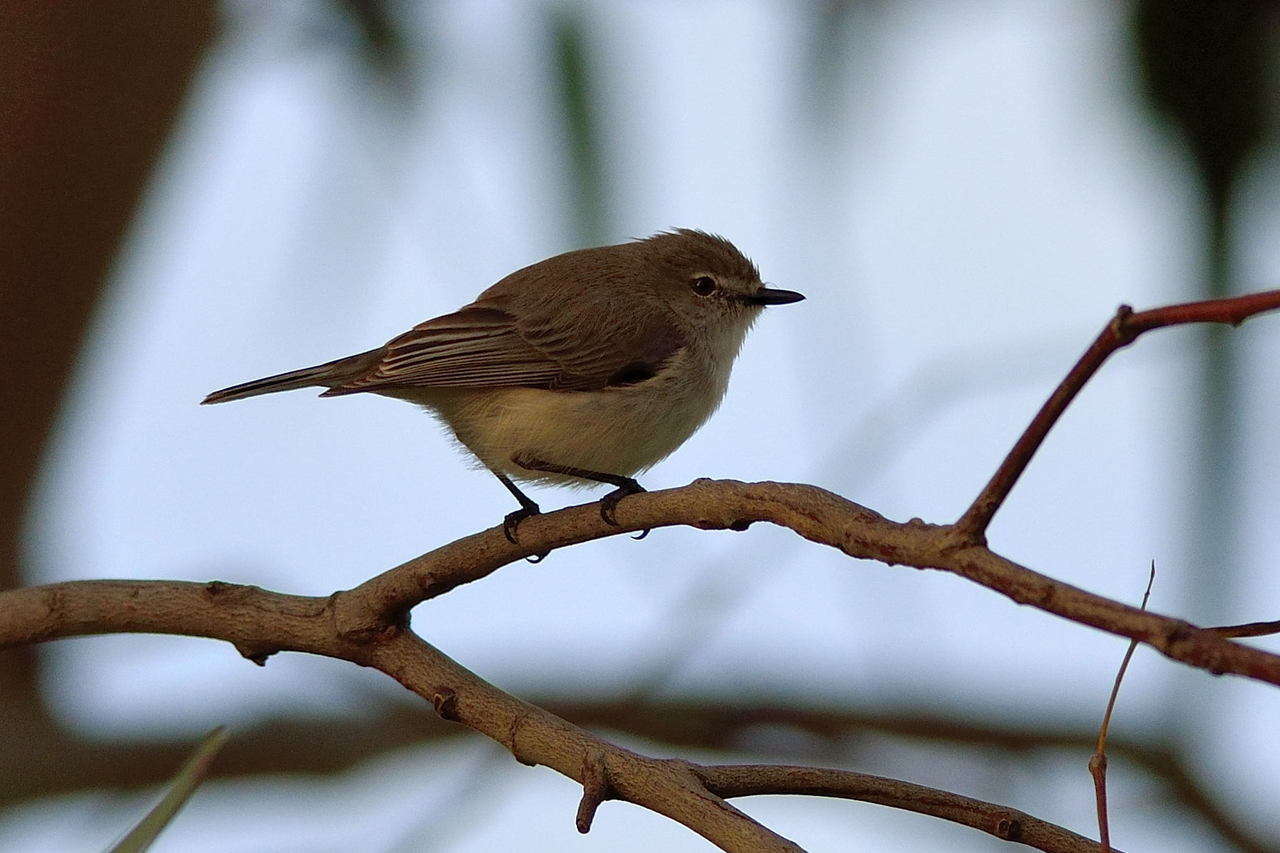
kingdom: Animalia
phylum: Chordata
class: Aves
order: Passeriformes
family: Acanthizidae
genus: Gerygone
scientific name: Gerygone fusca
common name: Western gerygone
